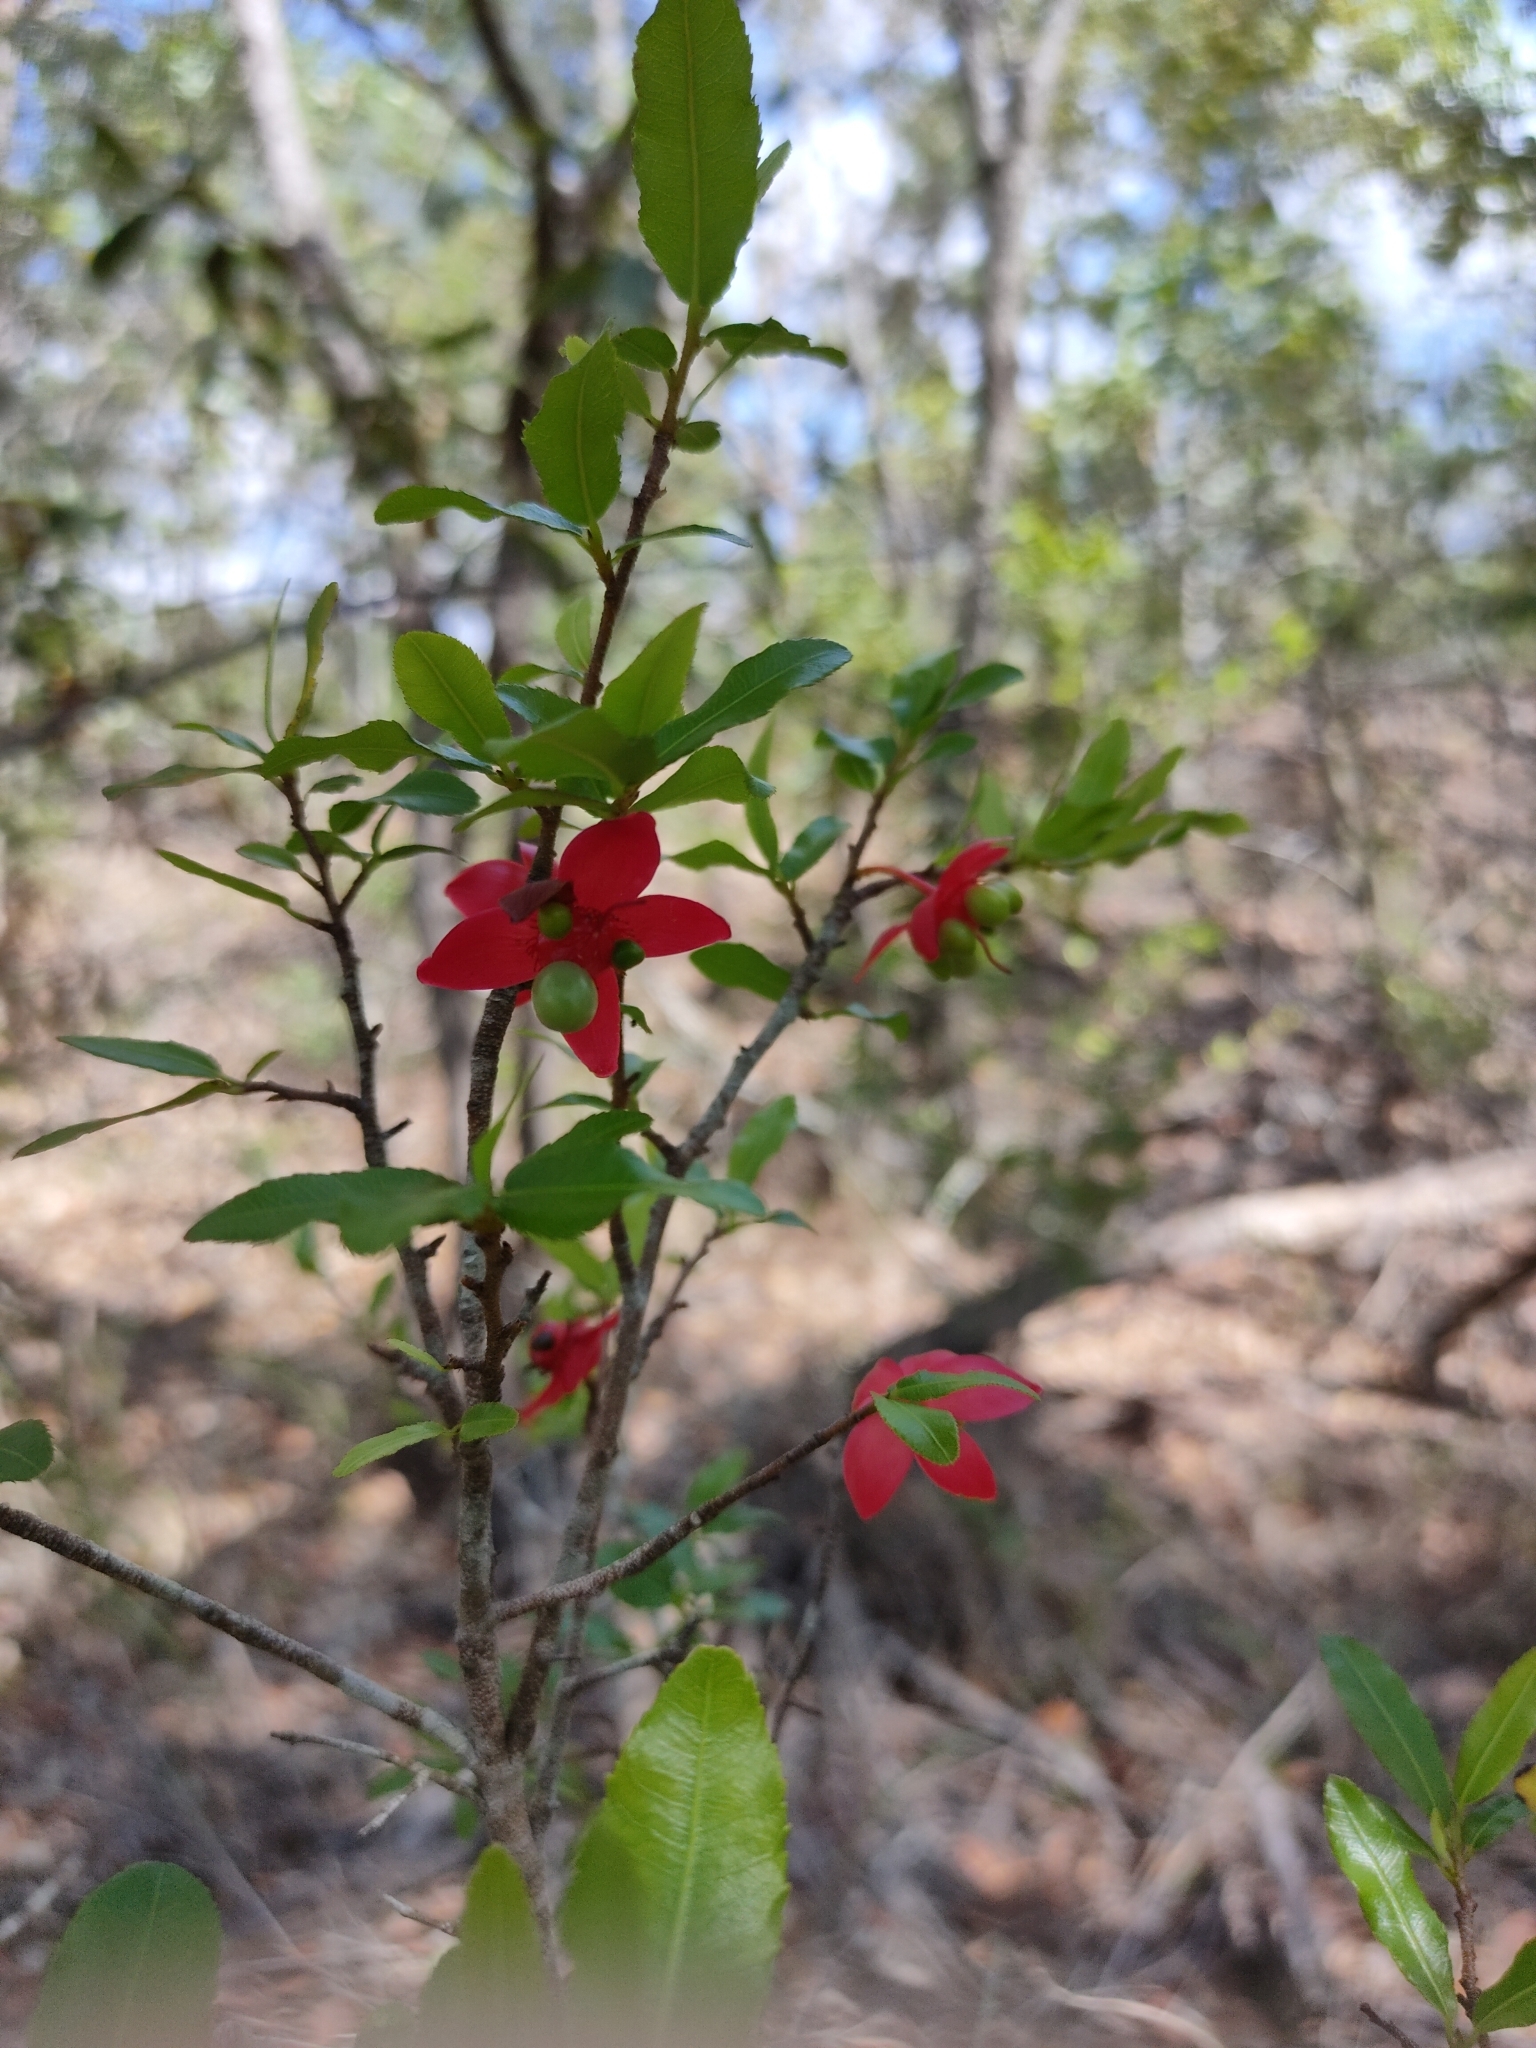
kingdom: Plantae
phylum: Tracheophyta
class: Magnoliopsida
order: Malpighiales
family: Ochnaceae
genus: Ochna
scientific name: Ochna serrulata
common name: Mickey mouse plant
